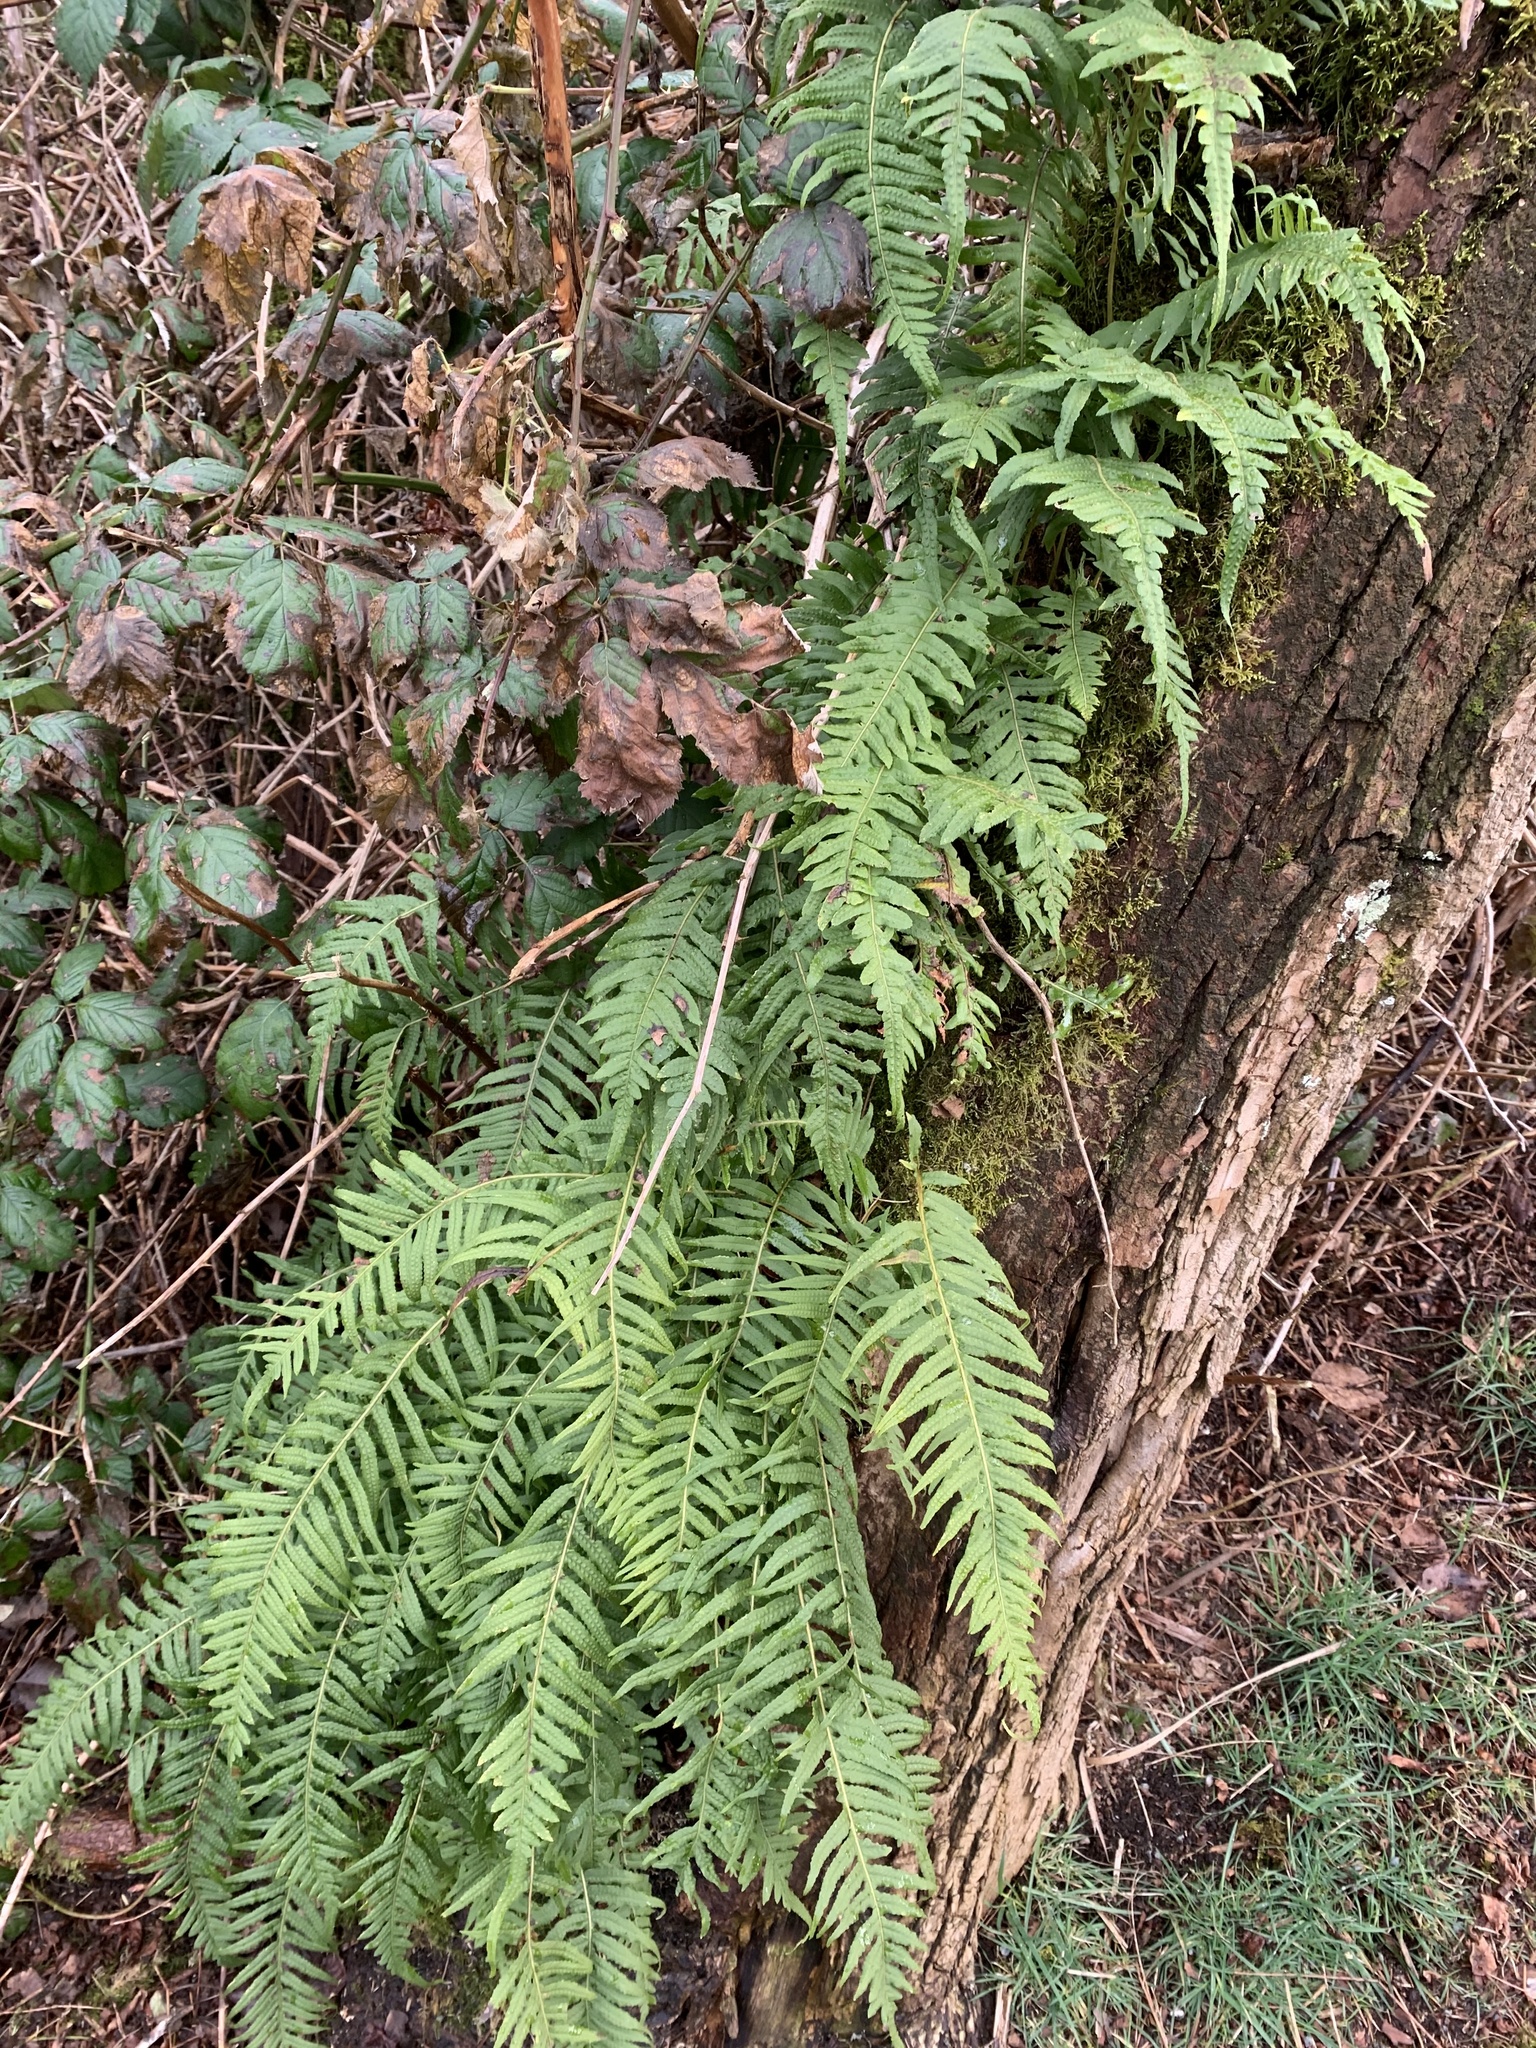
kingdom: Plantae
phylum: Tracheophyta
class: Polypodiopsida
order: Polypodiales
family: Polypodiaceae
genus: Polypodium
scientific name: Polypodium glycyrrhiza
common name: Licorice fern
